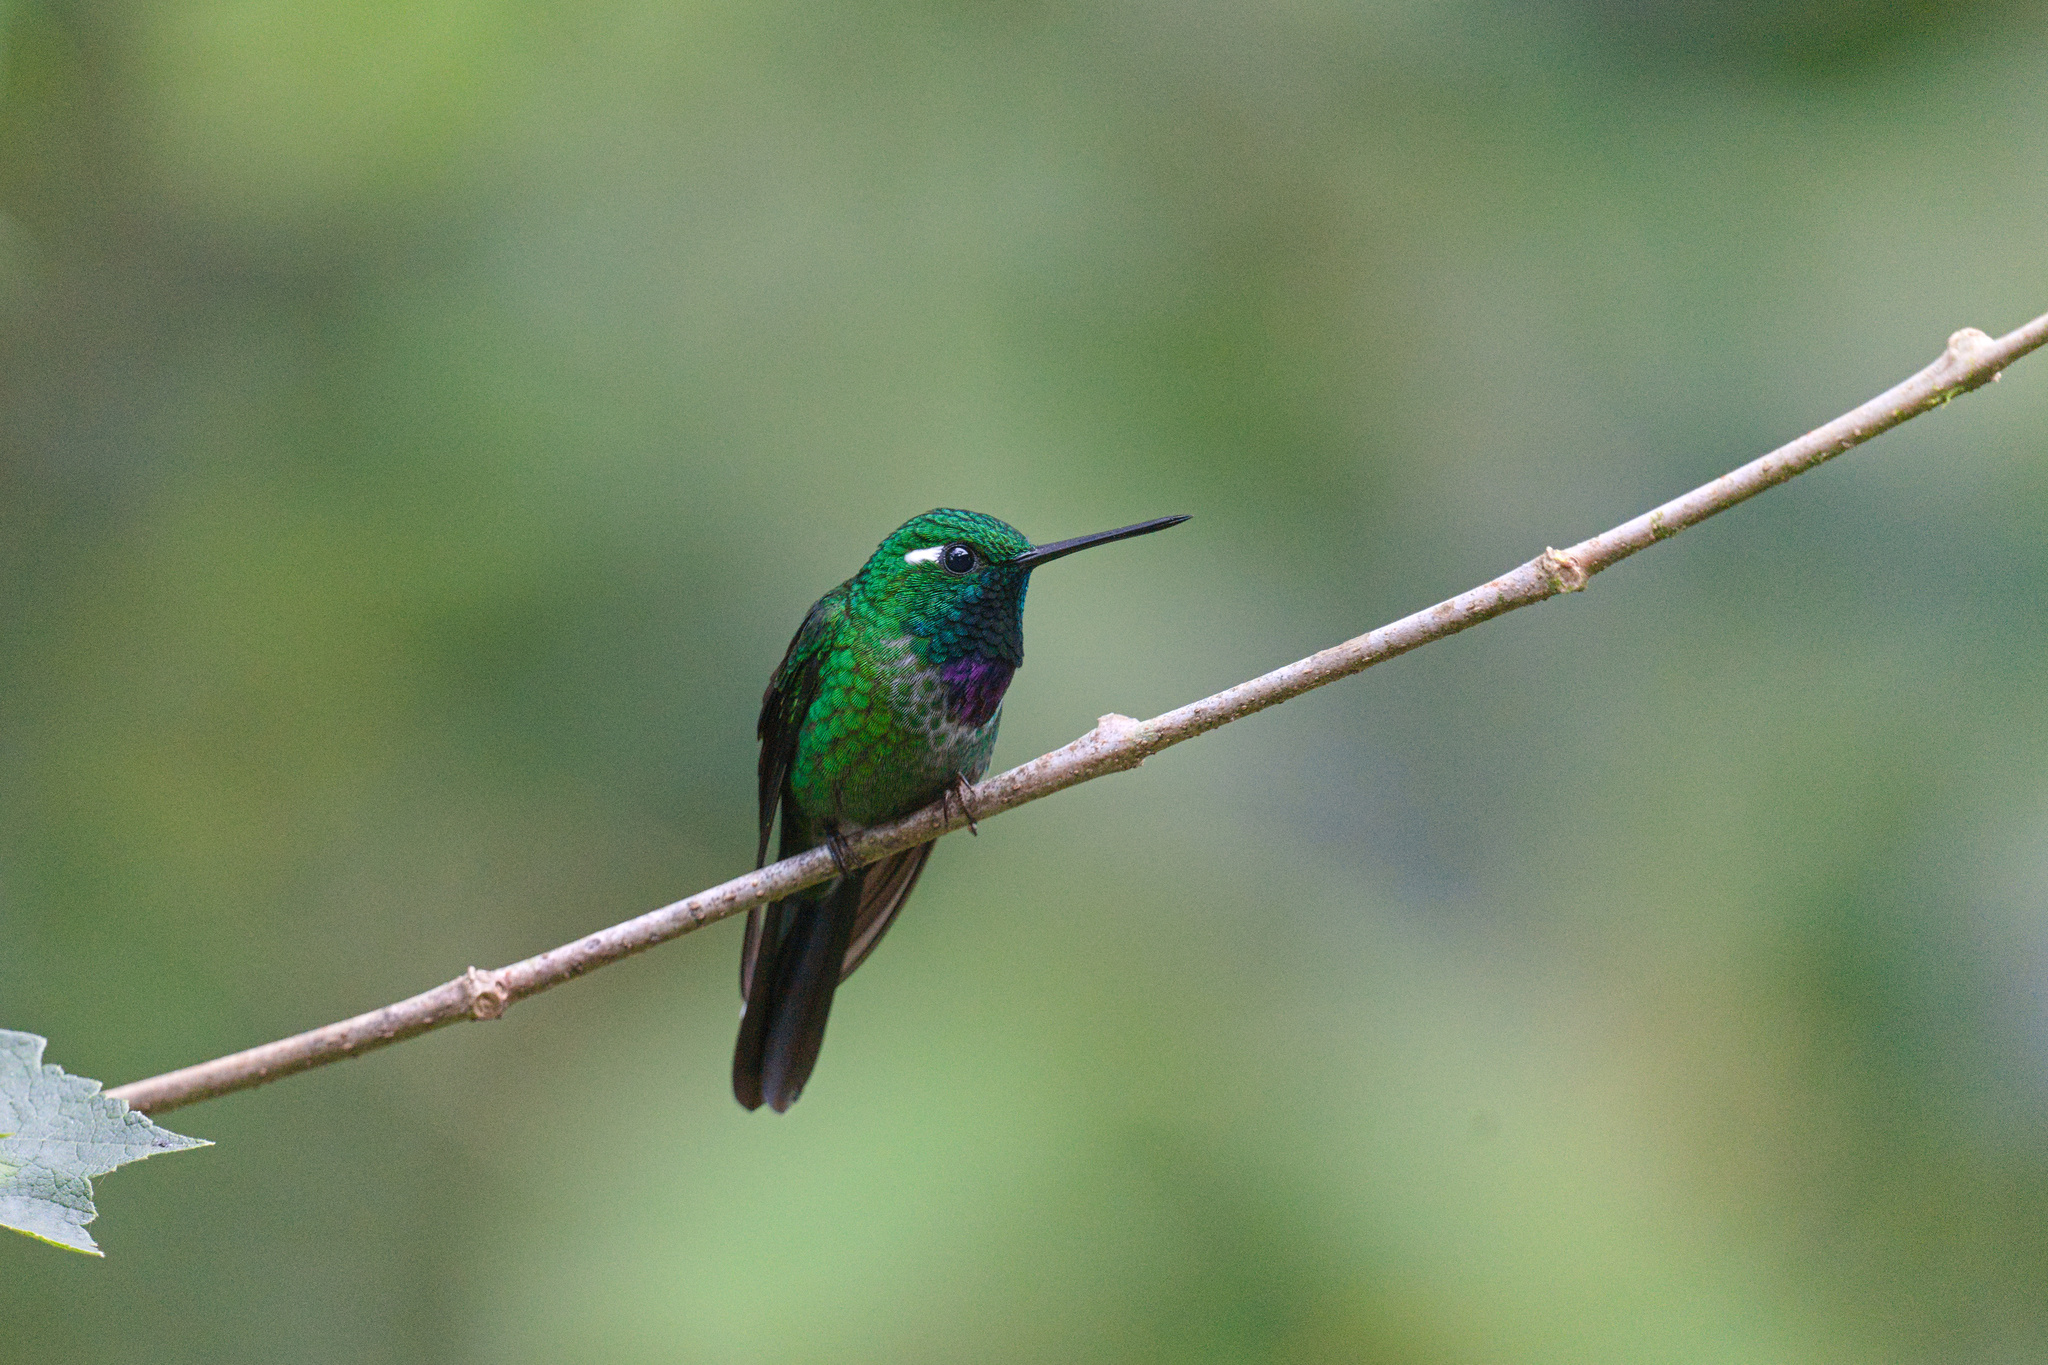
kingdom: Animalia
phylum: Chordata
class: Aves
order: Apodiformes
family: Trochilidae
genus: Urosticte
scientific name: Urosticte benjamini
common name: Purple-bibbed whitetip
